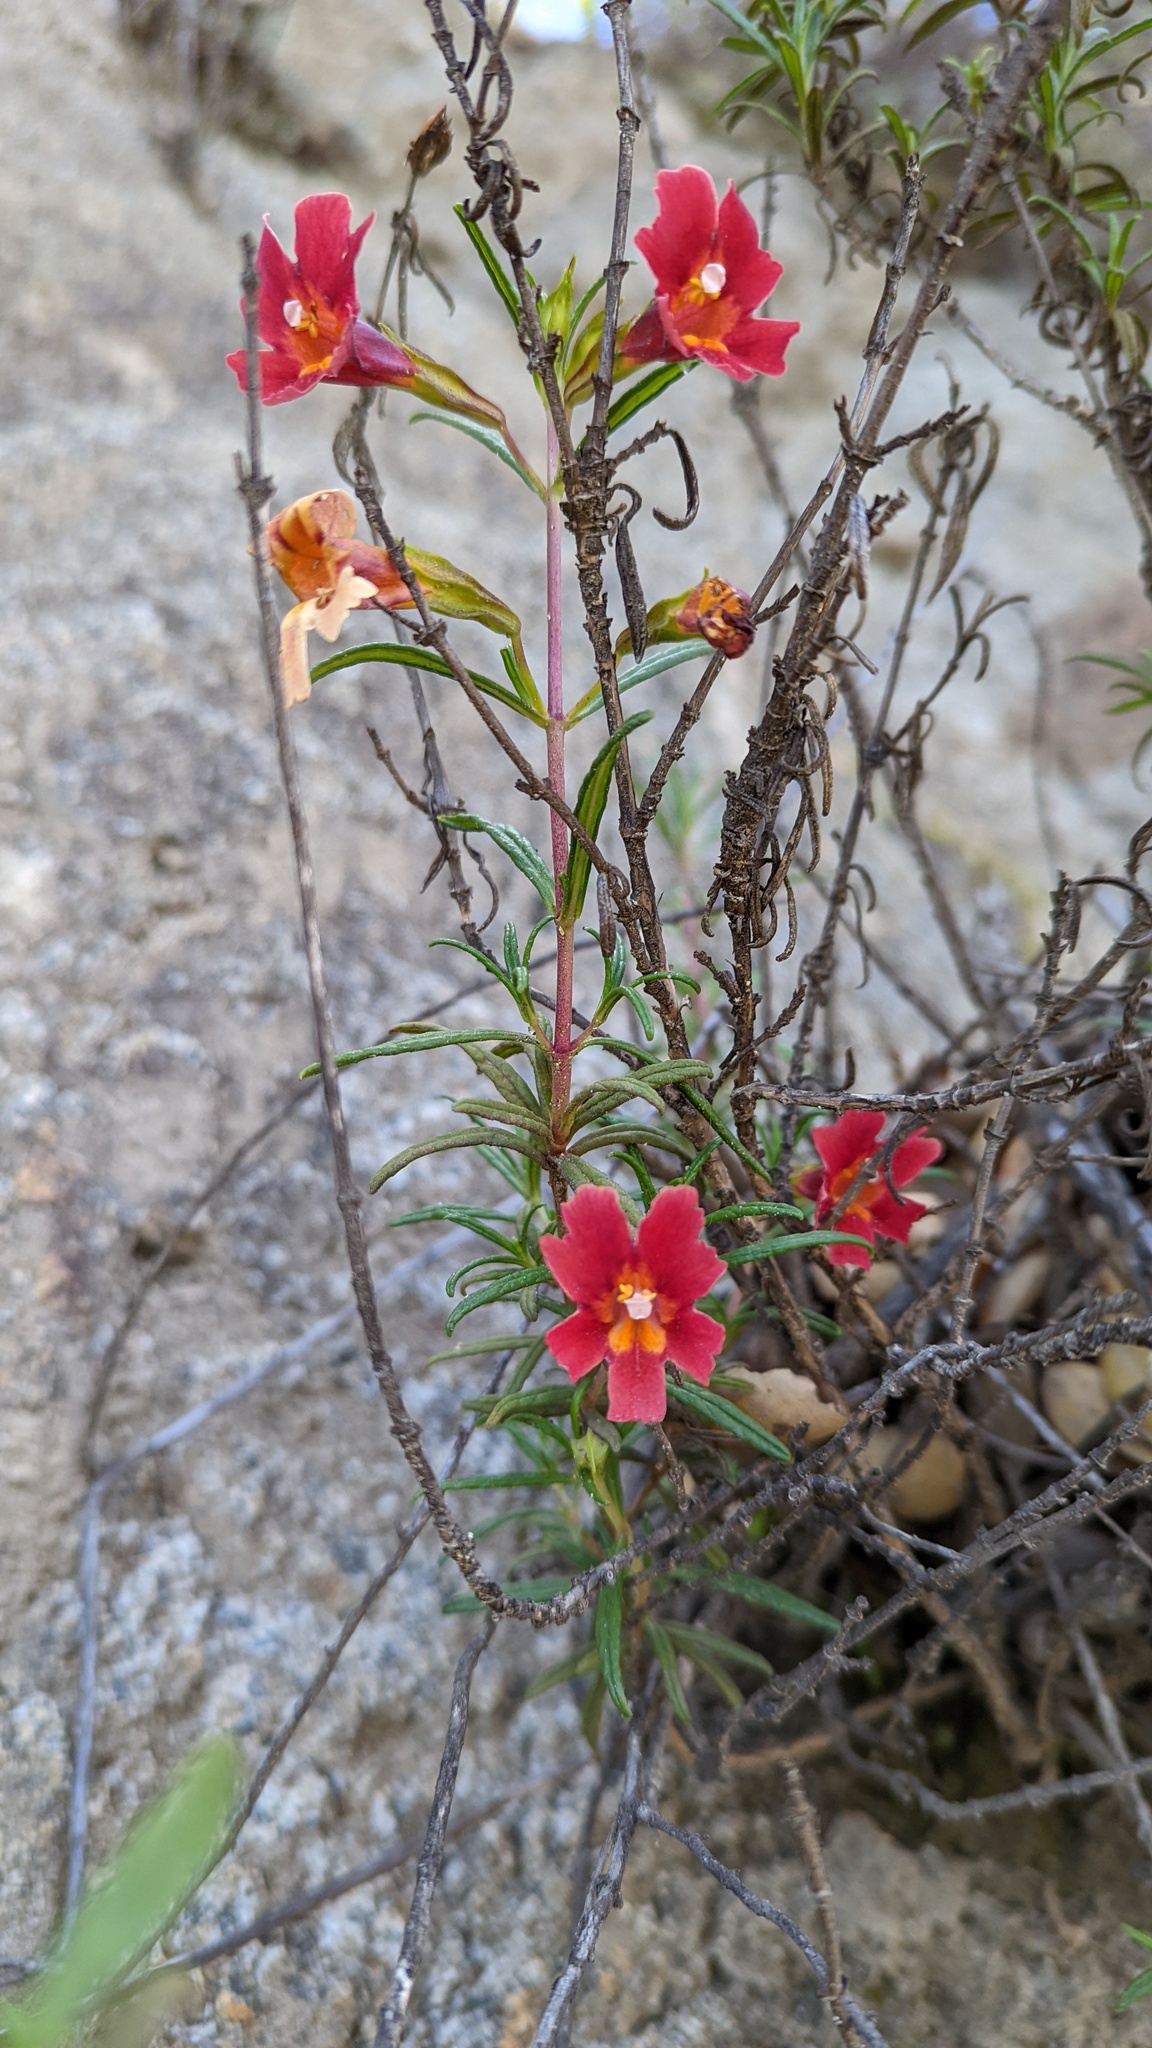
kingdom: Plantae
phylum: Tracheophyta
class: Magnoliopsida
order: Lamiales
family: Phrymaceae
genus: Diplacus
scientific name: Diplacus puniceus
